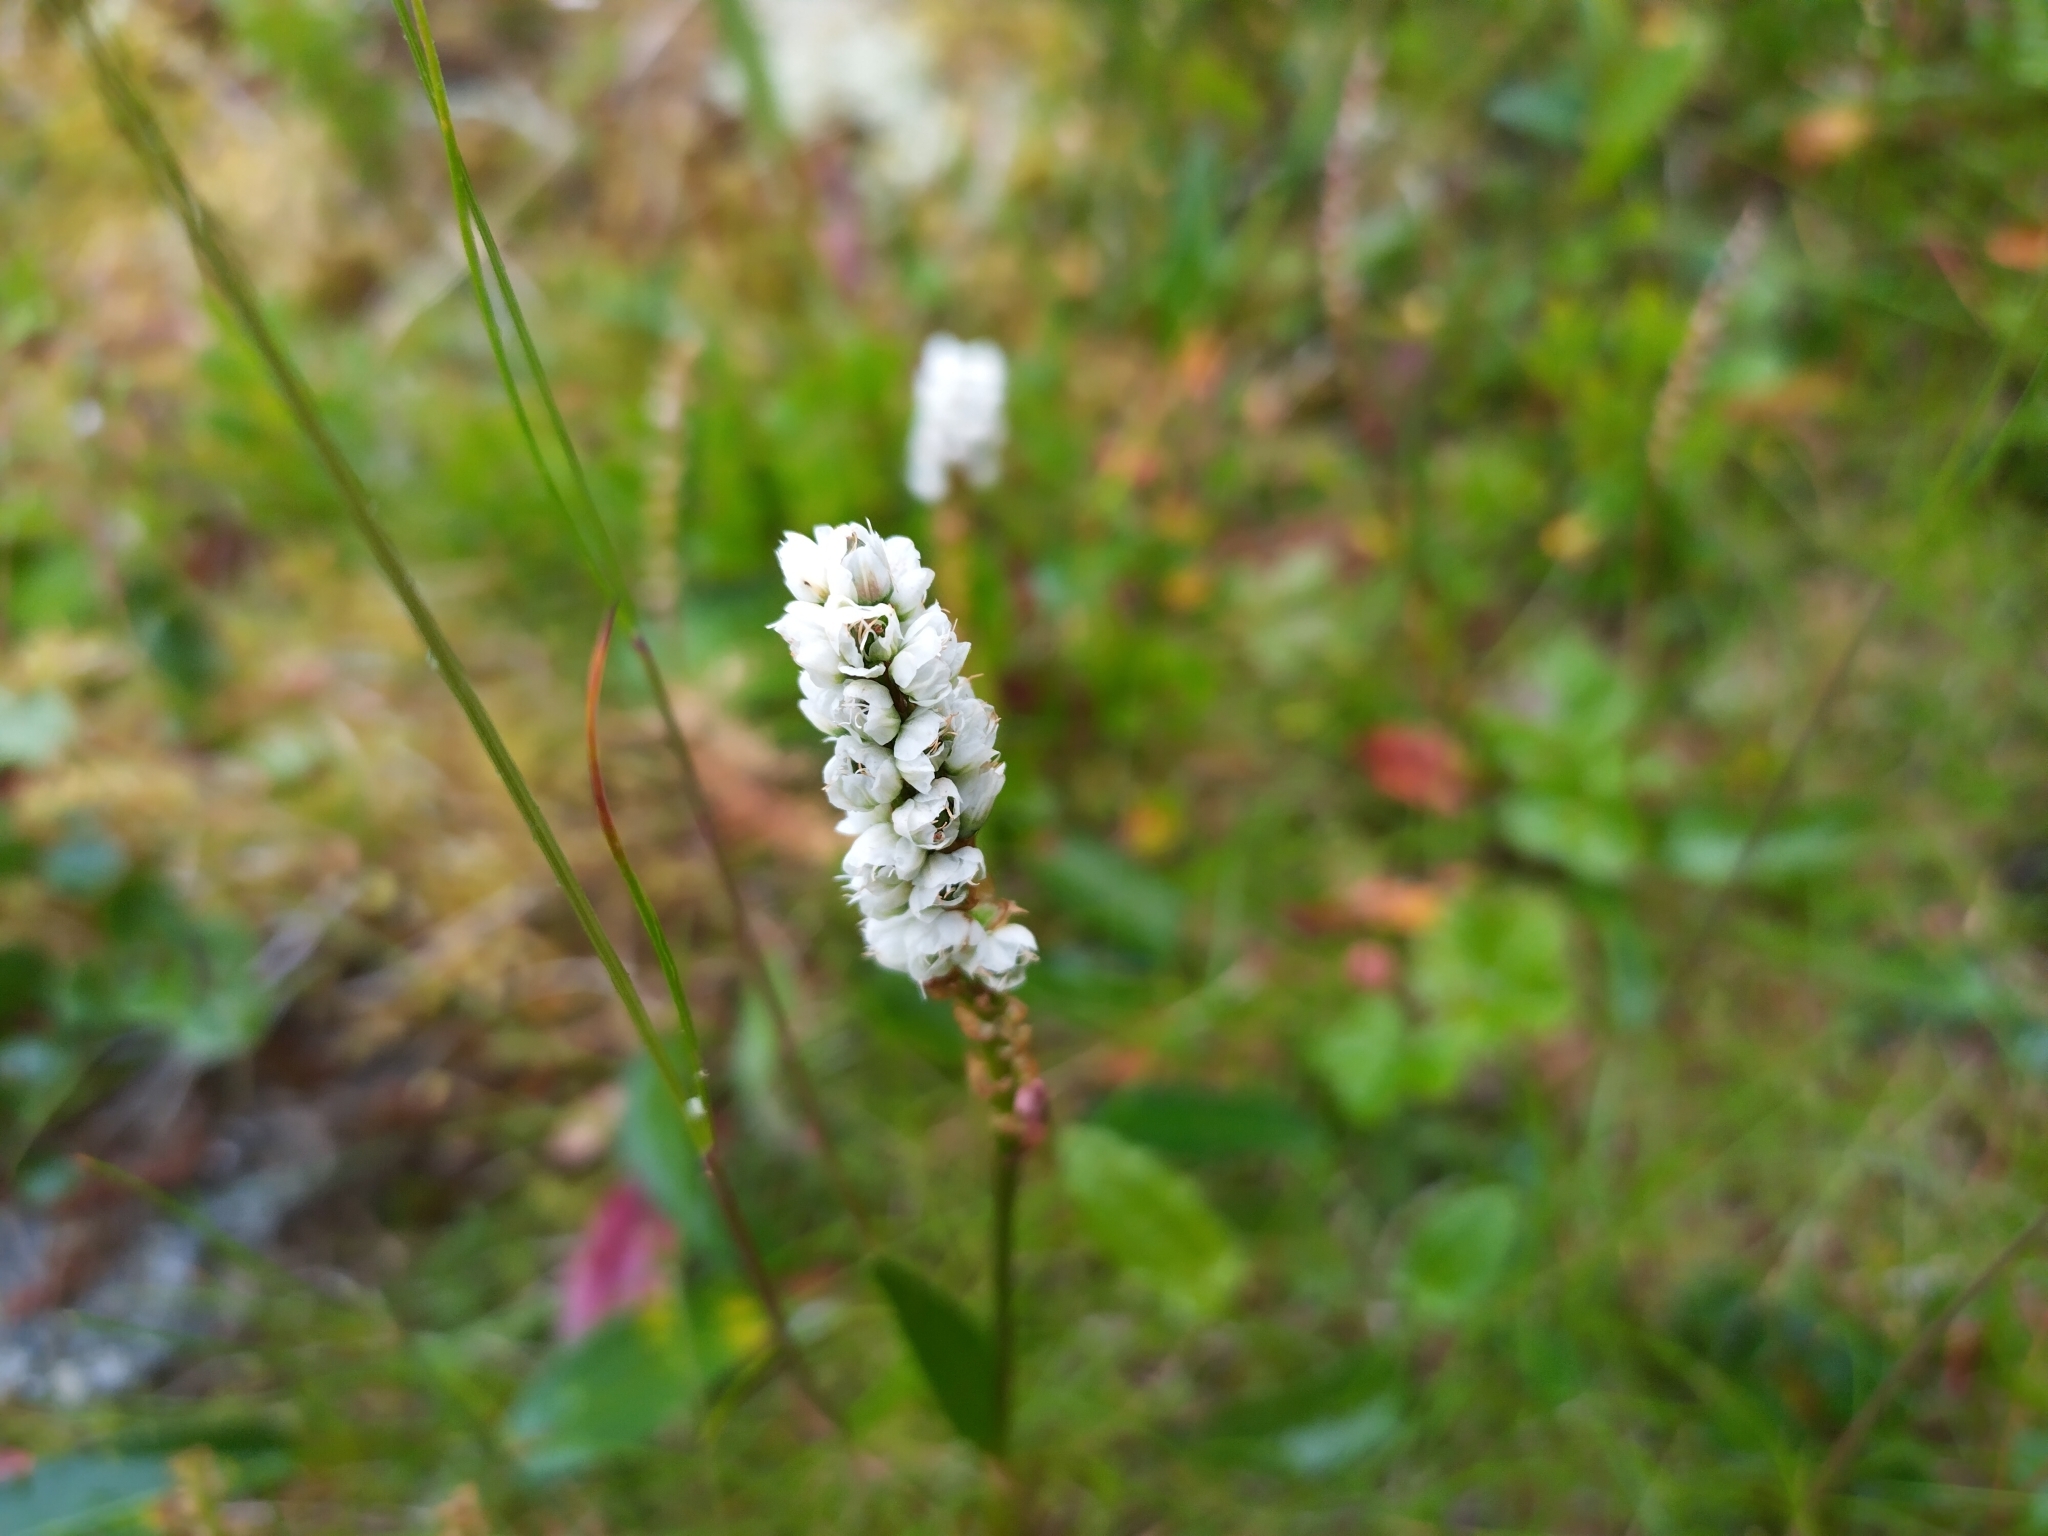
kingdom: Plantae
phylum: Tracheophyta
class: Magnoliopsida
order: Caryophyllales
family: Polygonaceae
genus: Bistorta
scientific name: Bistorta vivipara
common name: Alpine bistort
